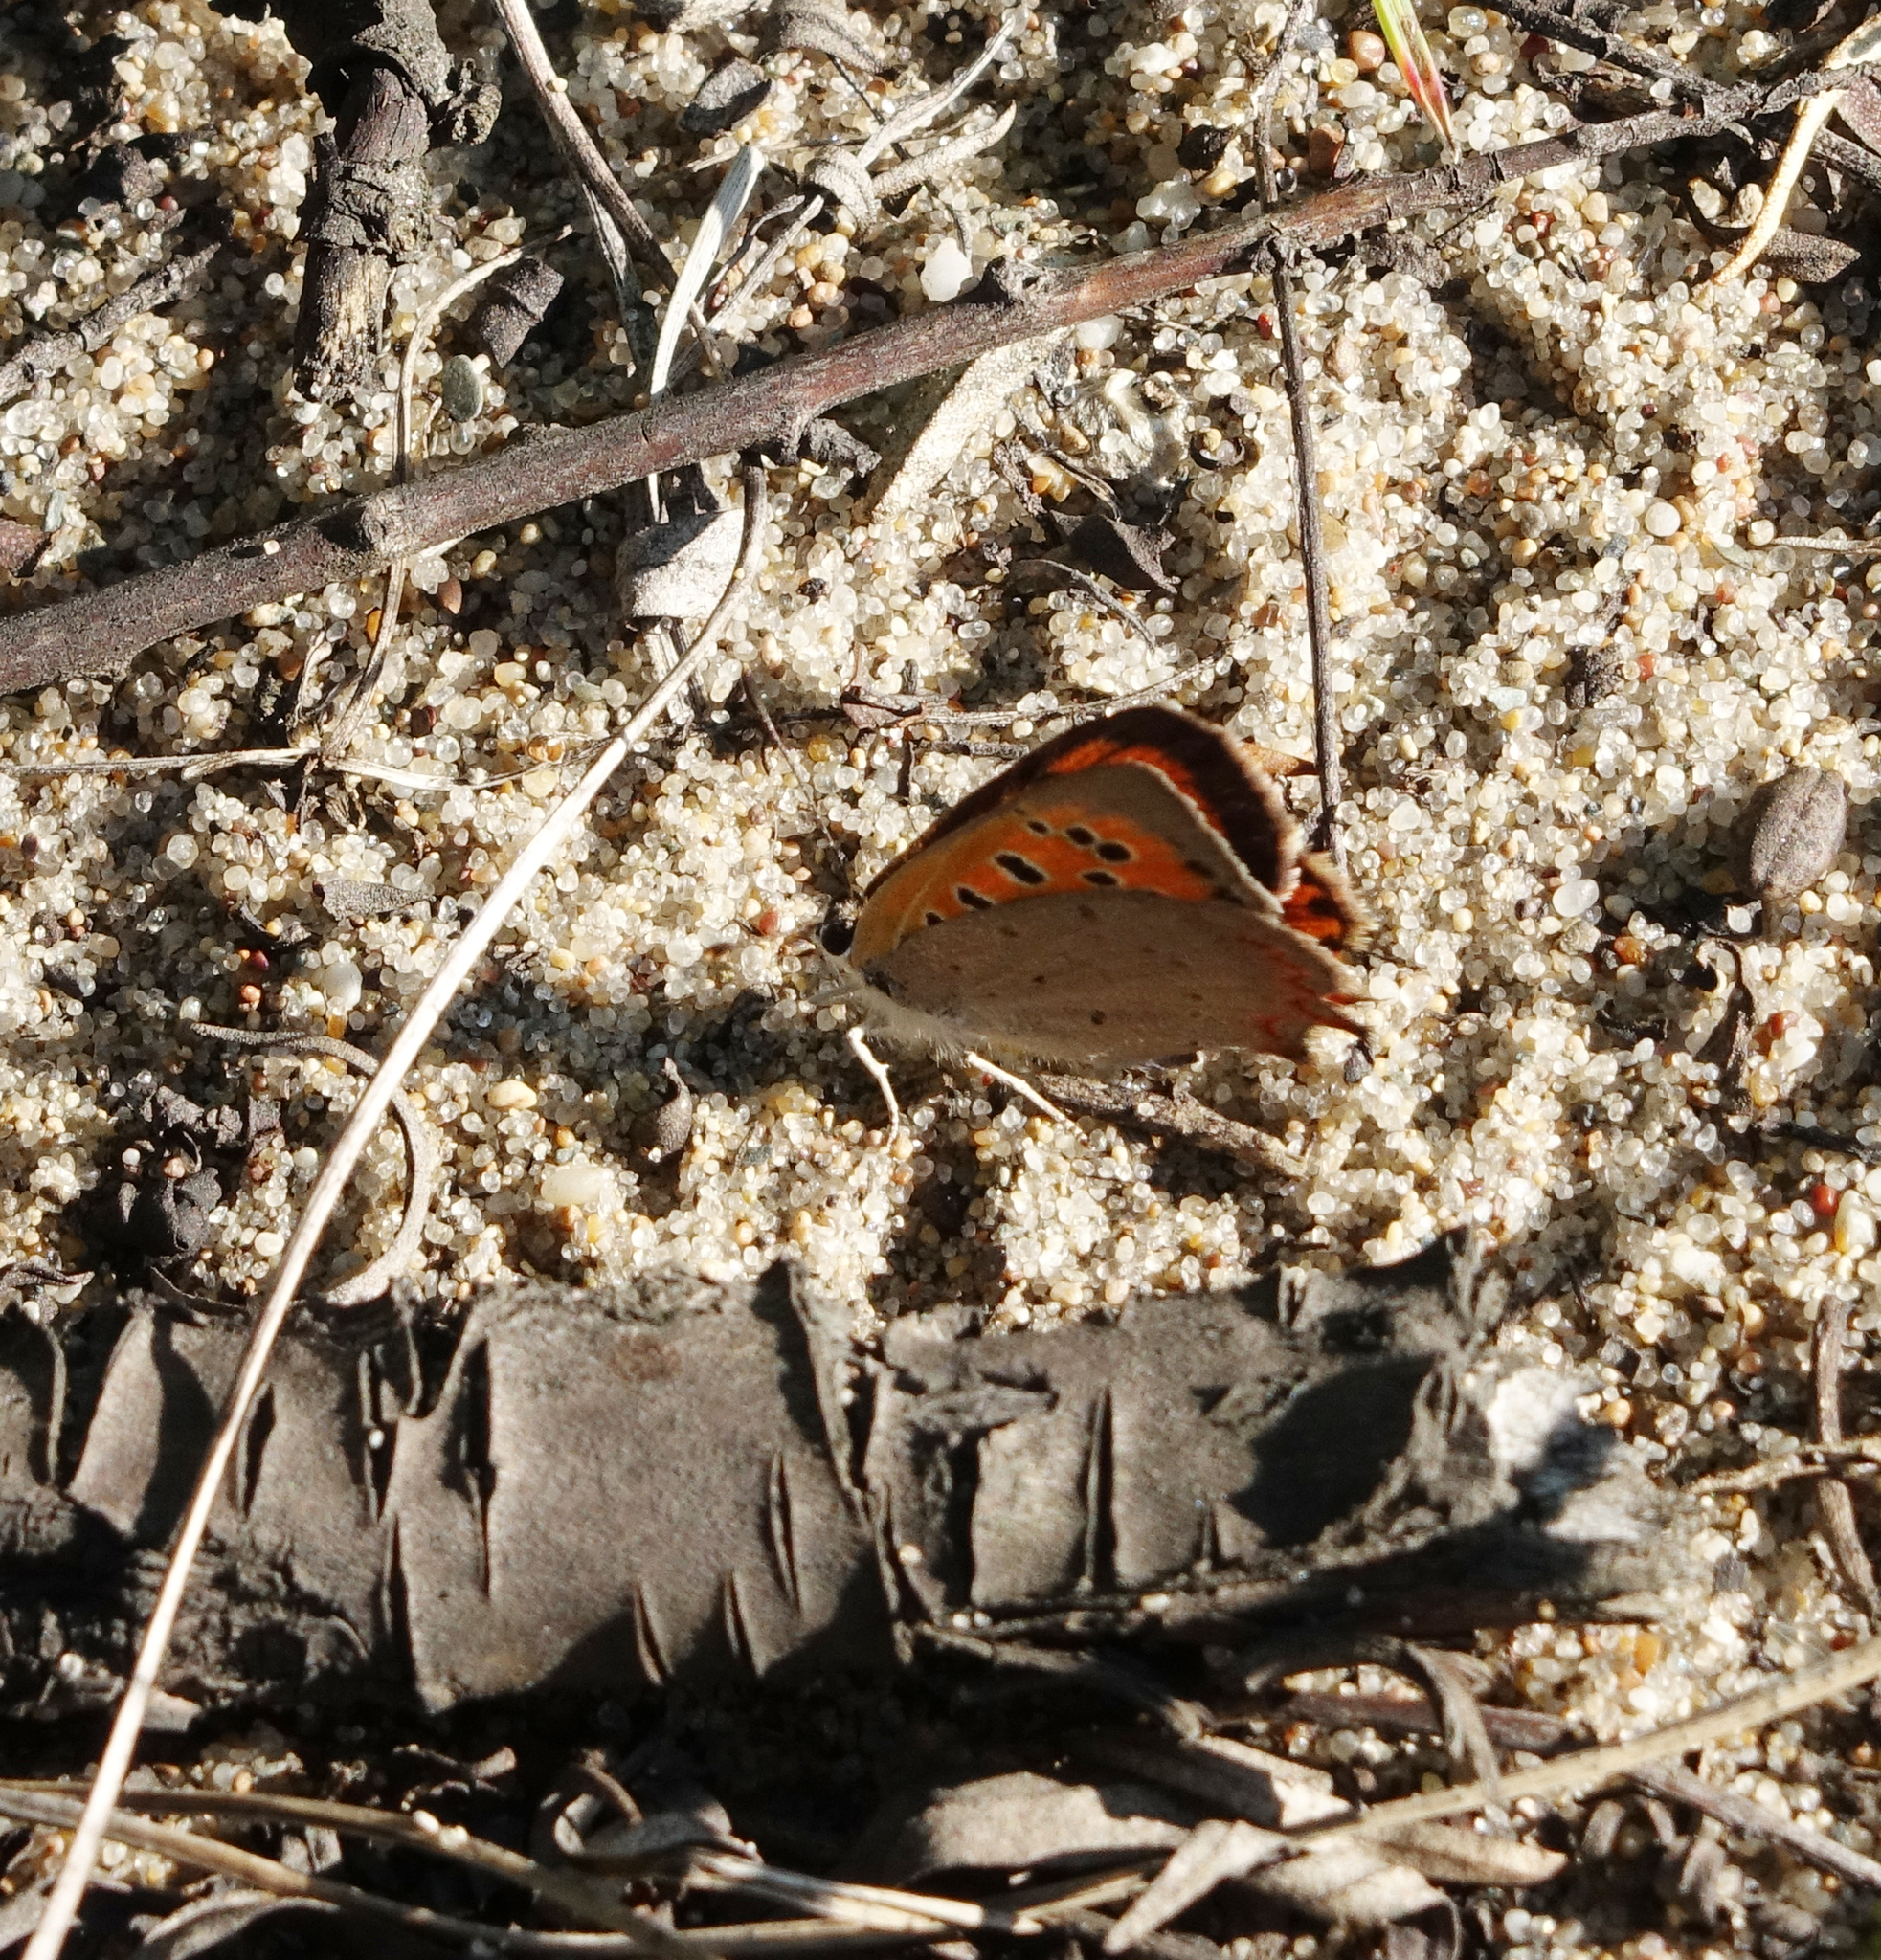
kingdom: Animalia
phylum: Arthropoda
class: Insecta
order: Lepidoptera
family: Lycaenidae
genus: Lycaena
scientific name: Lycaena phlaeas
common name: Small copper
